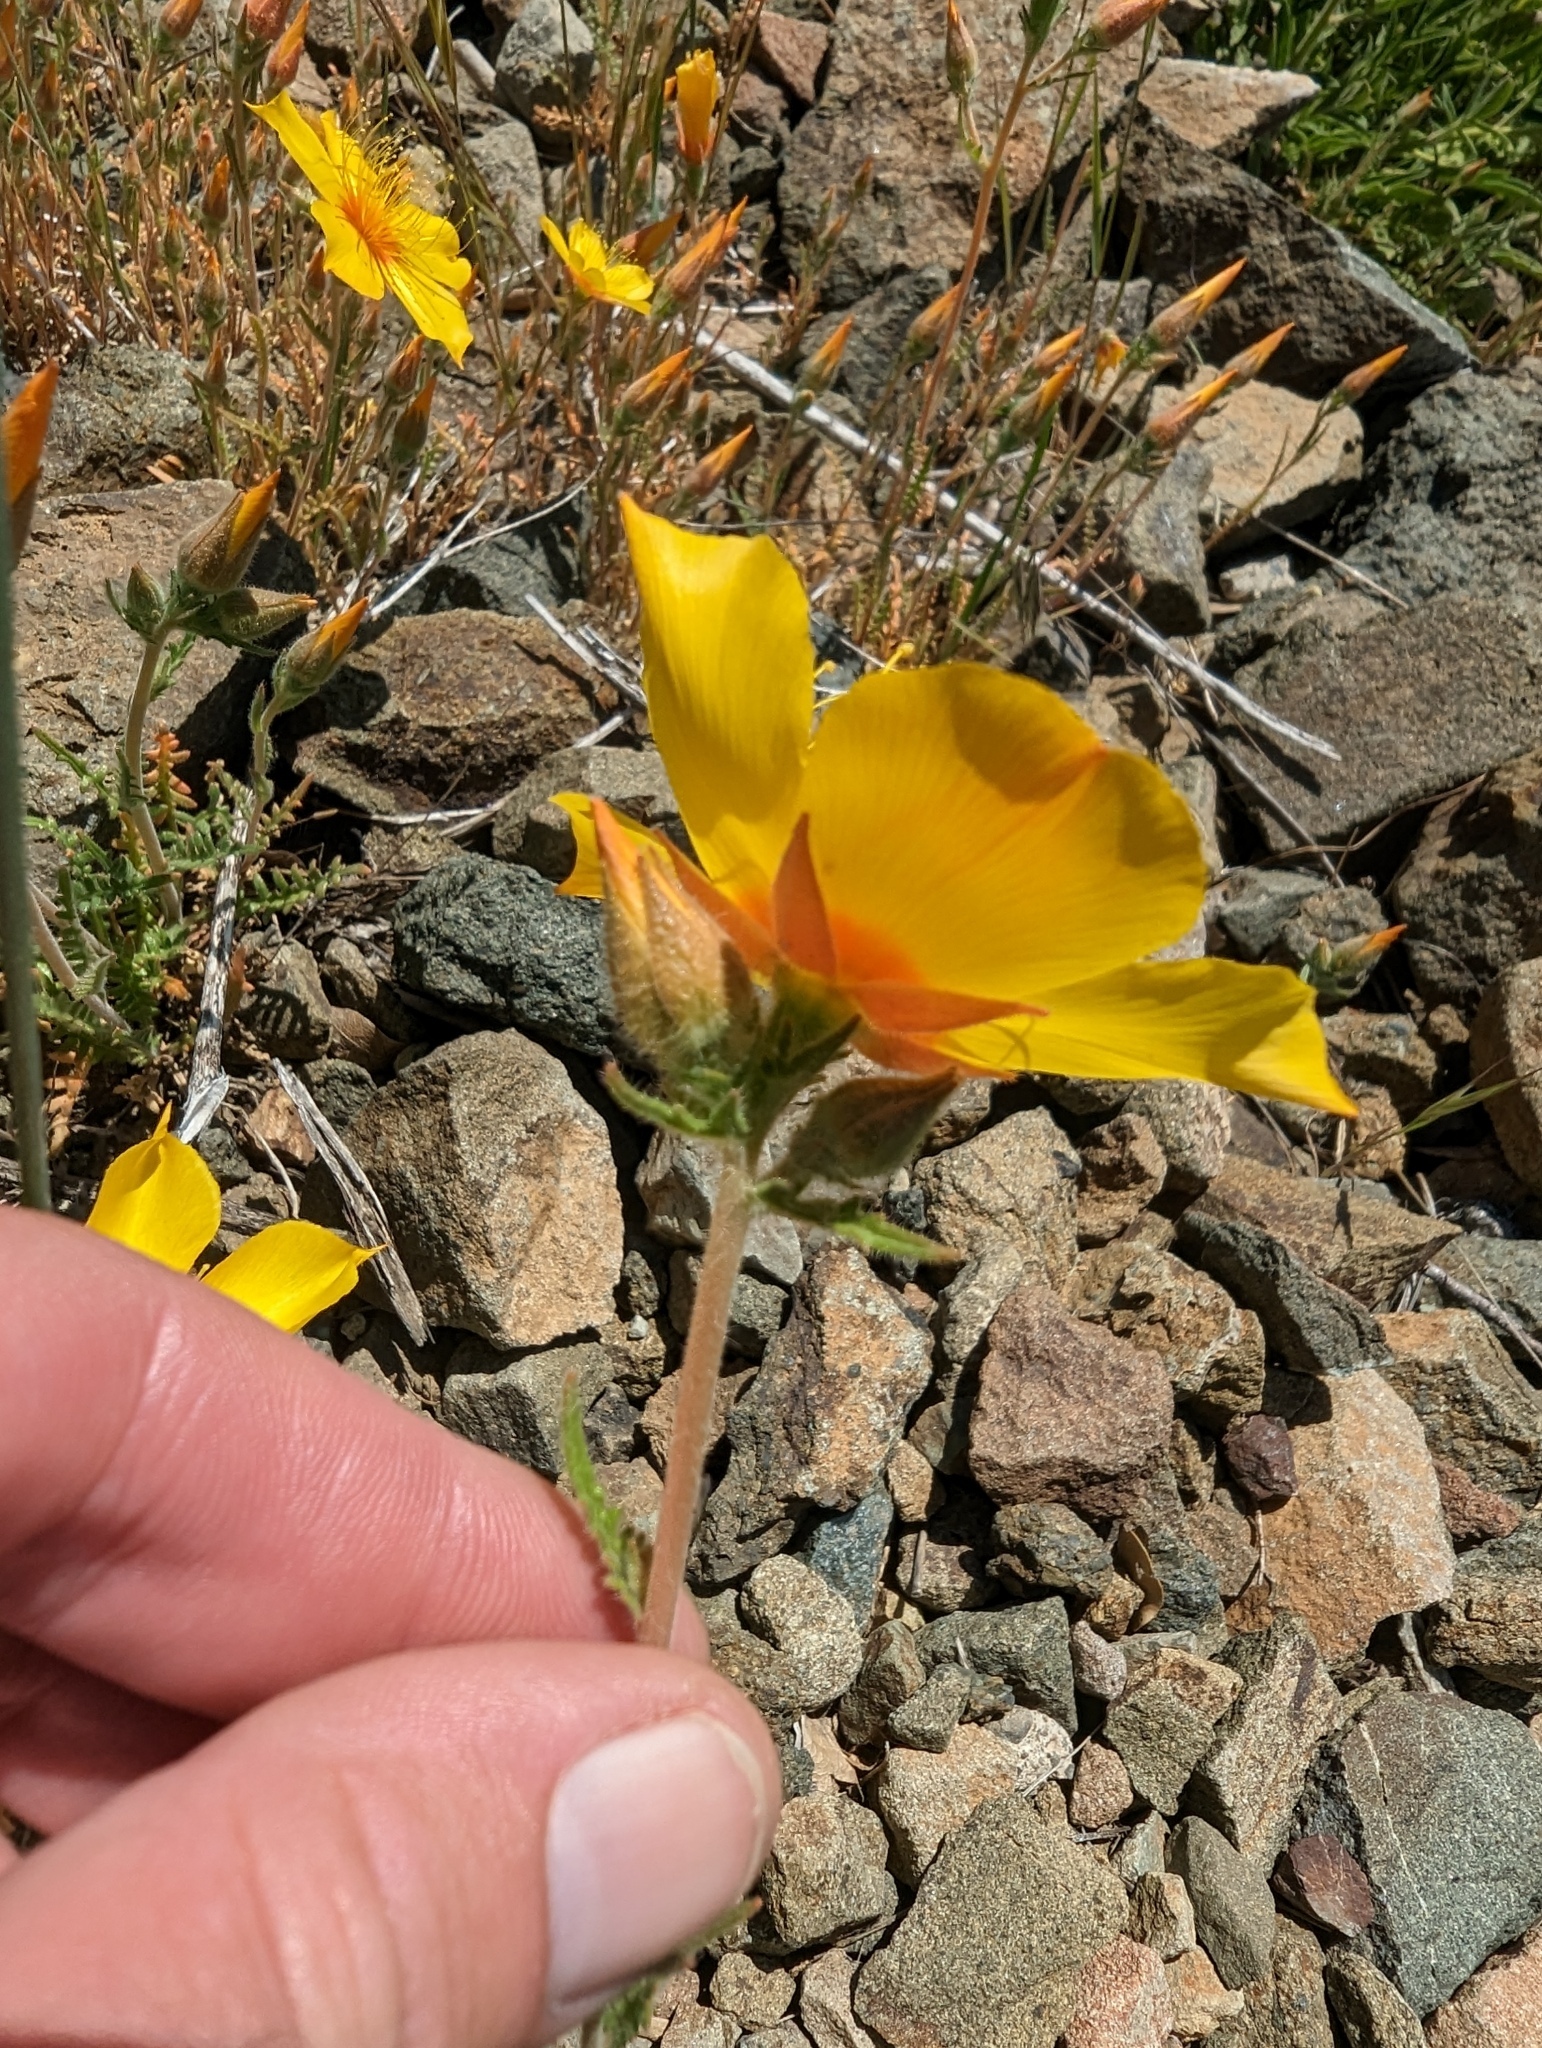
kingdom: Plantae
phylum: Tracheophyta
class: Magnoliopsida
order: Cornales
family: Loasaceae
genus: Mentzelia
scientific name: Mentzelia lindleyi
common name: Golden bartonia
